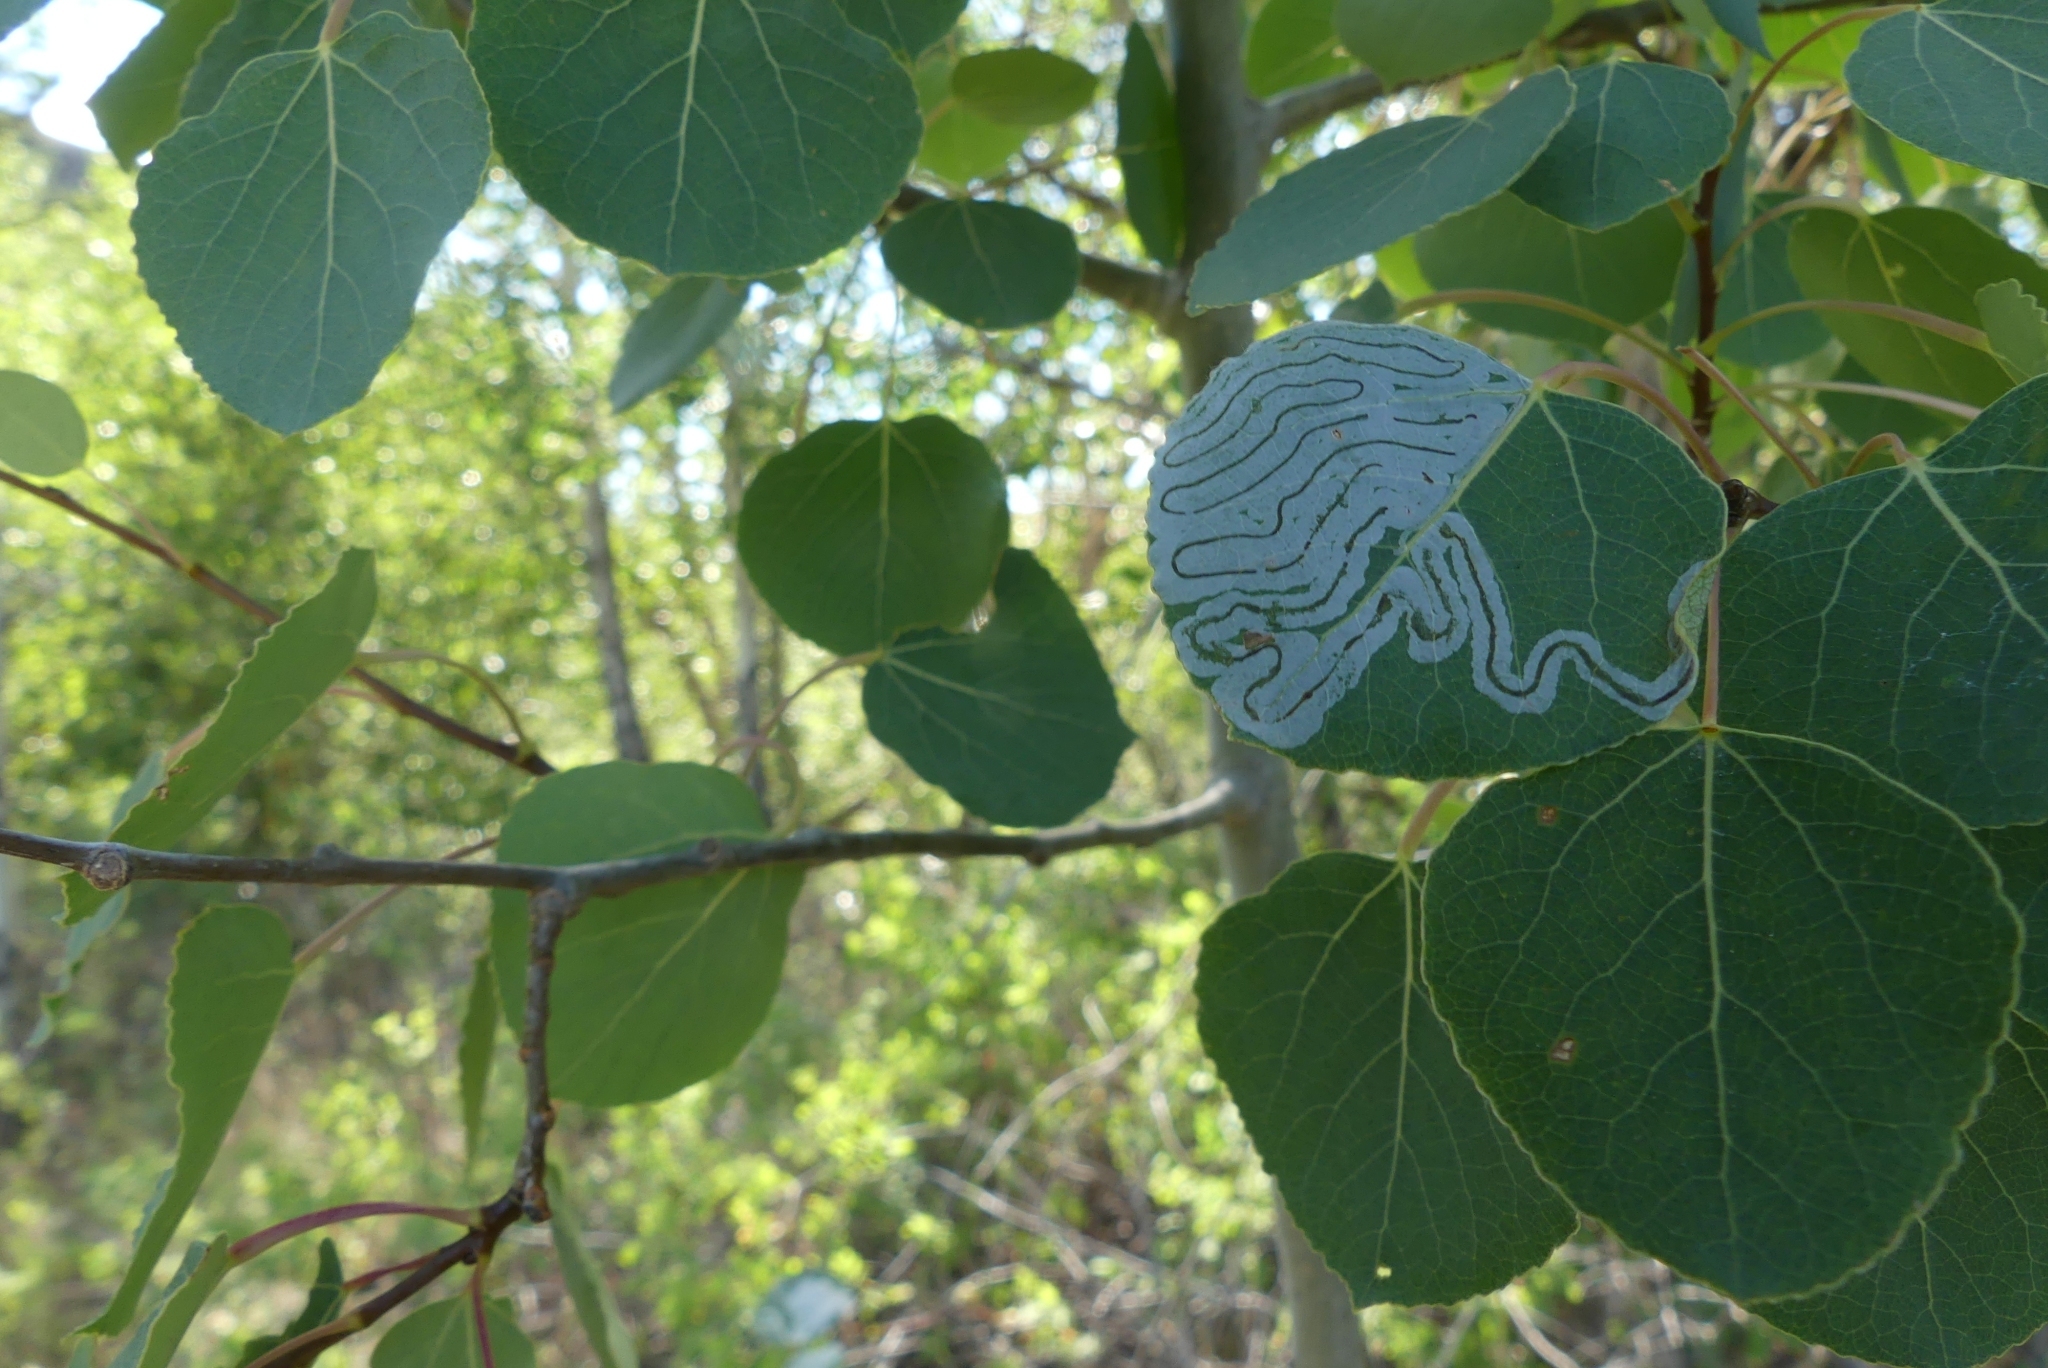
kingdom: Plantae
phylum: Tracheophyta
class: Magnoliopsida
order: Malpighiales
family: Salicaceae
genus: Populus
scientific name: Populus tremuloides
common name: Quaking aspen
